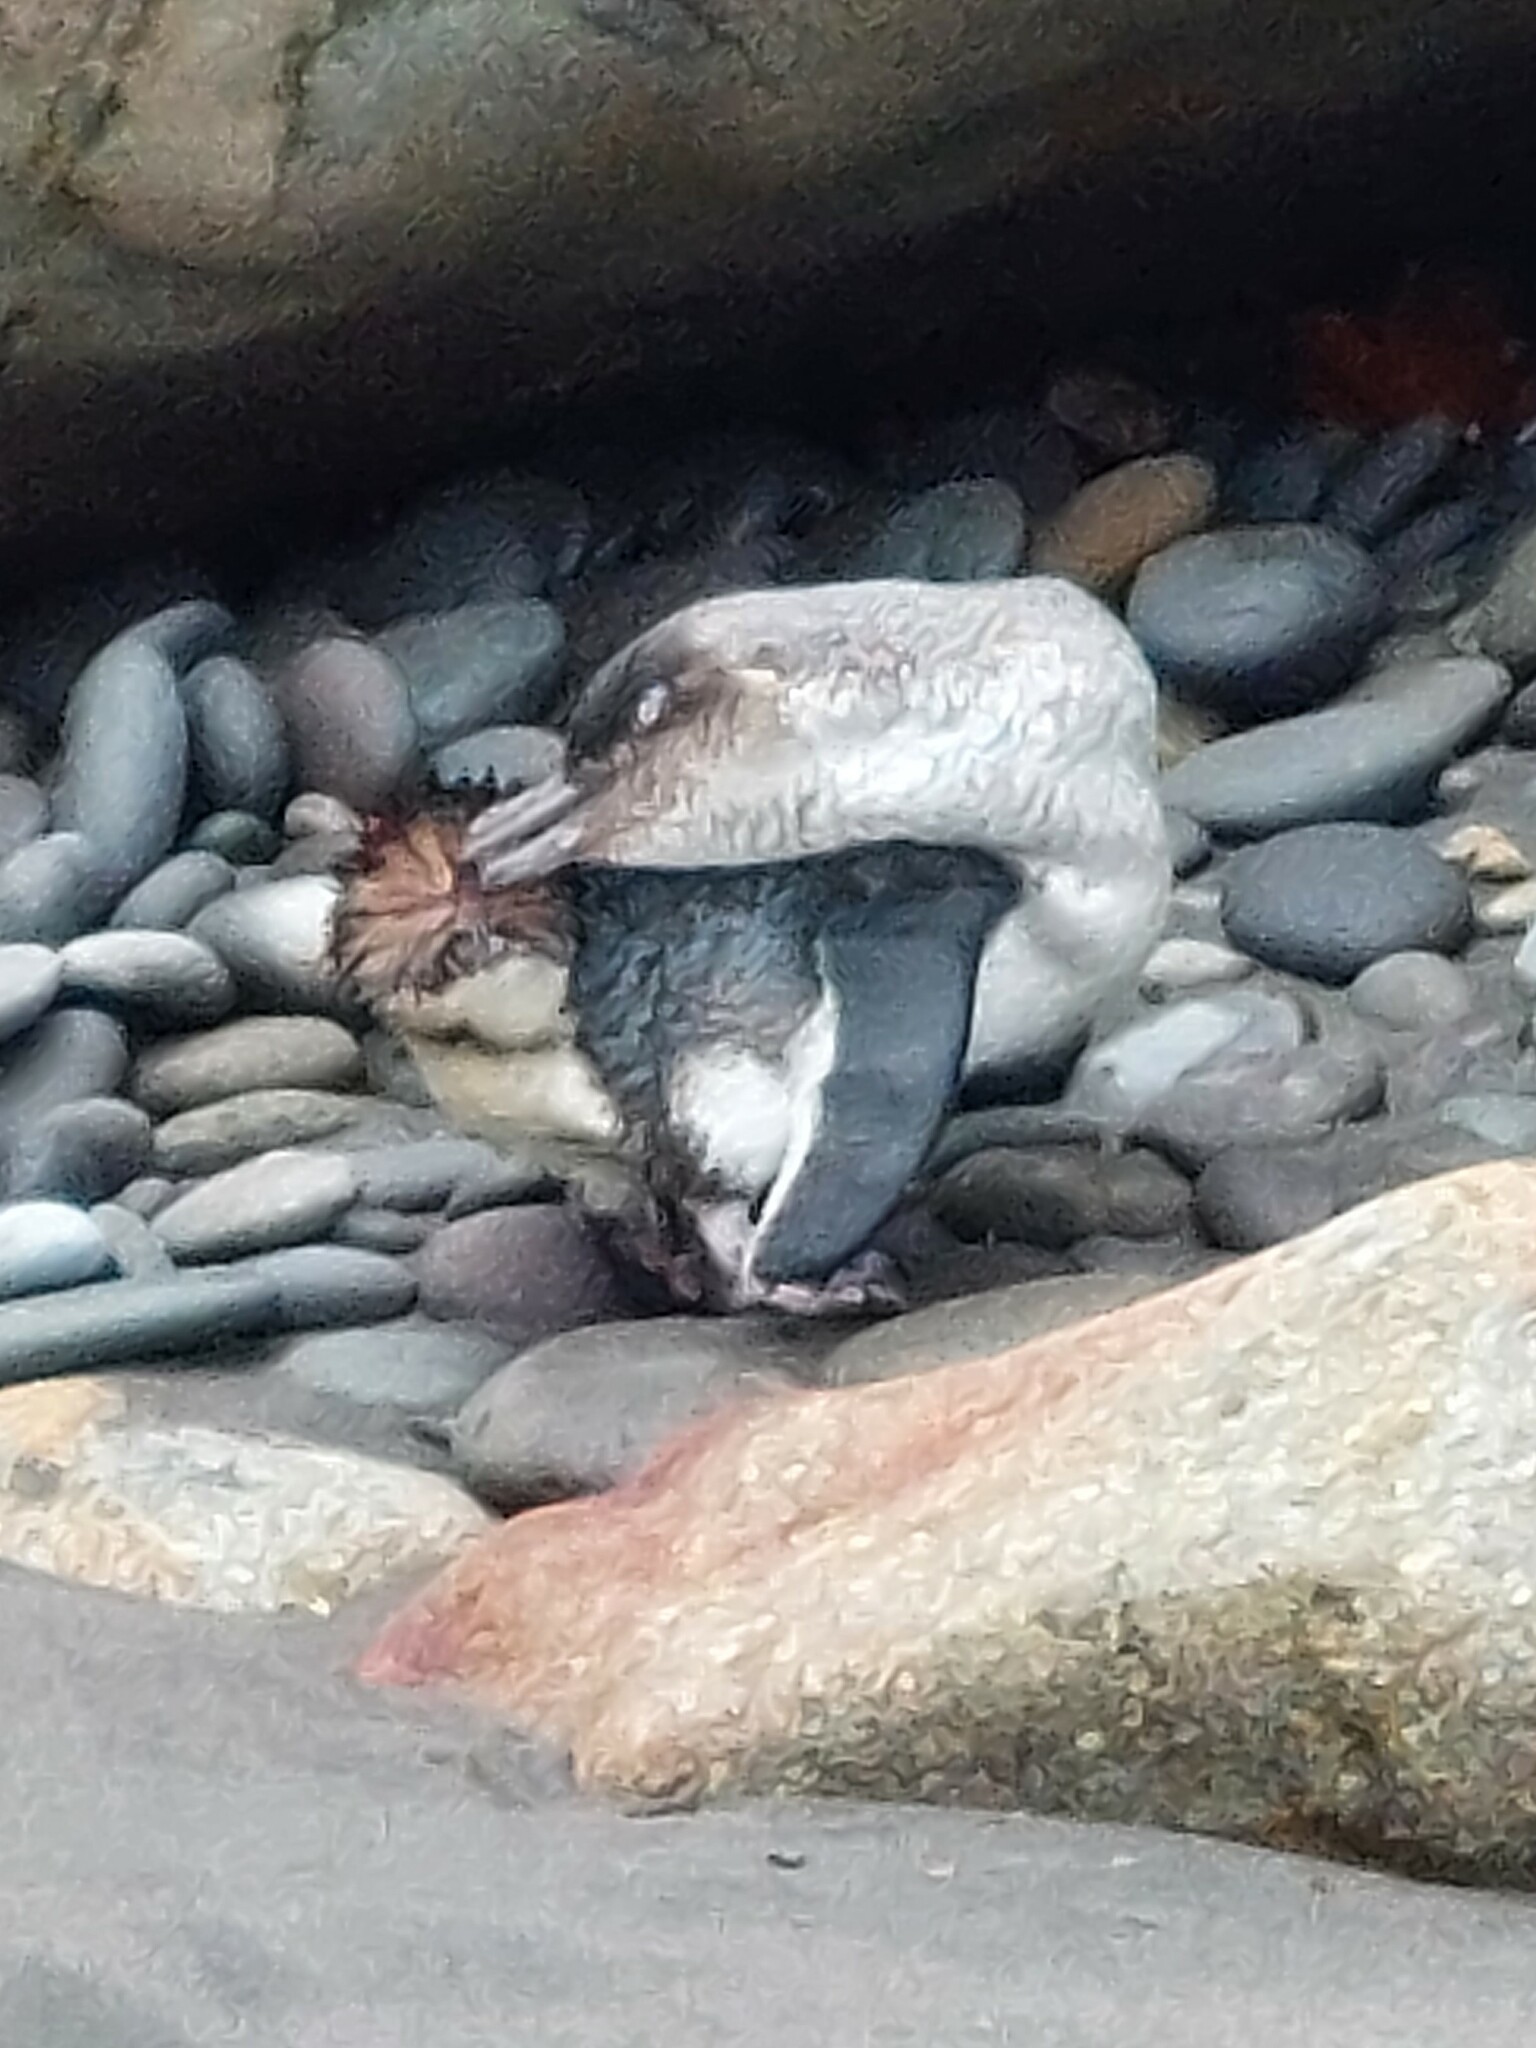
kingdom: Animalia
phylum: Chordata
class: Aves
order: Sphenisciformes
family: Spheniscidae
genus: Eudyptula
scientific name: Eudyptula minor
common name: Little penguin
